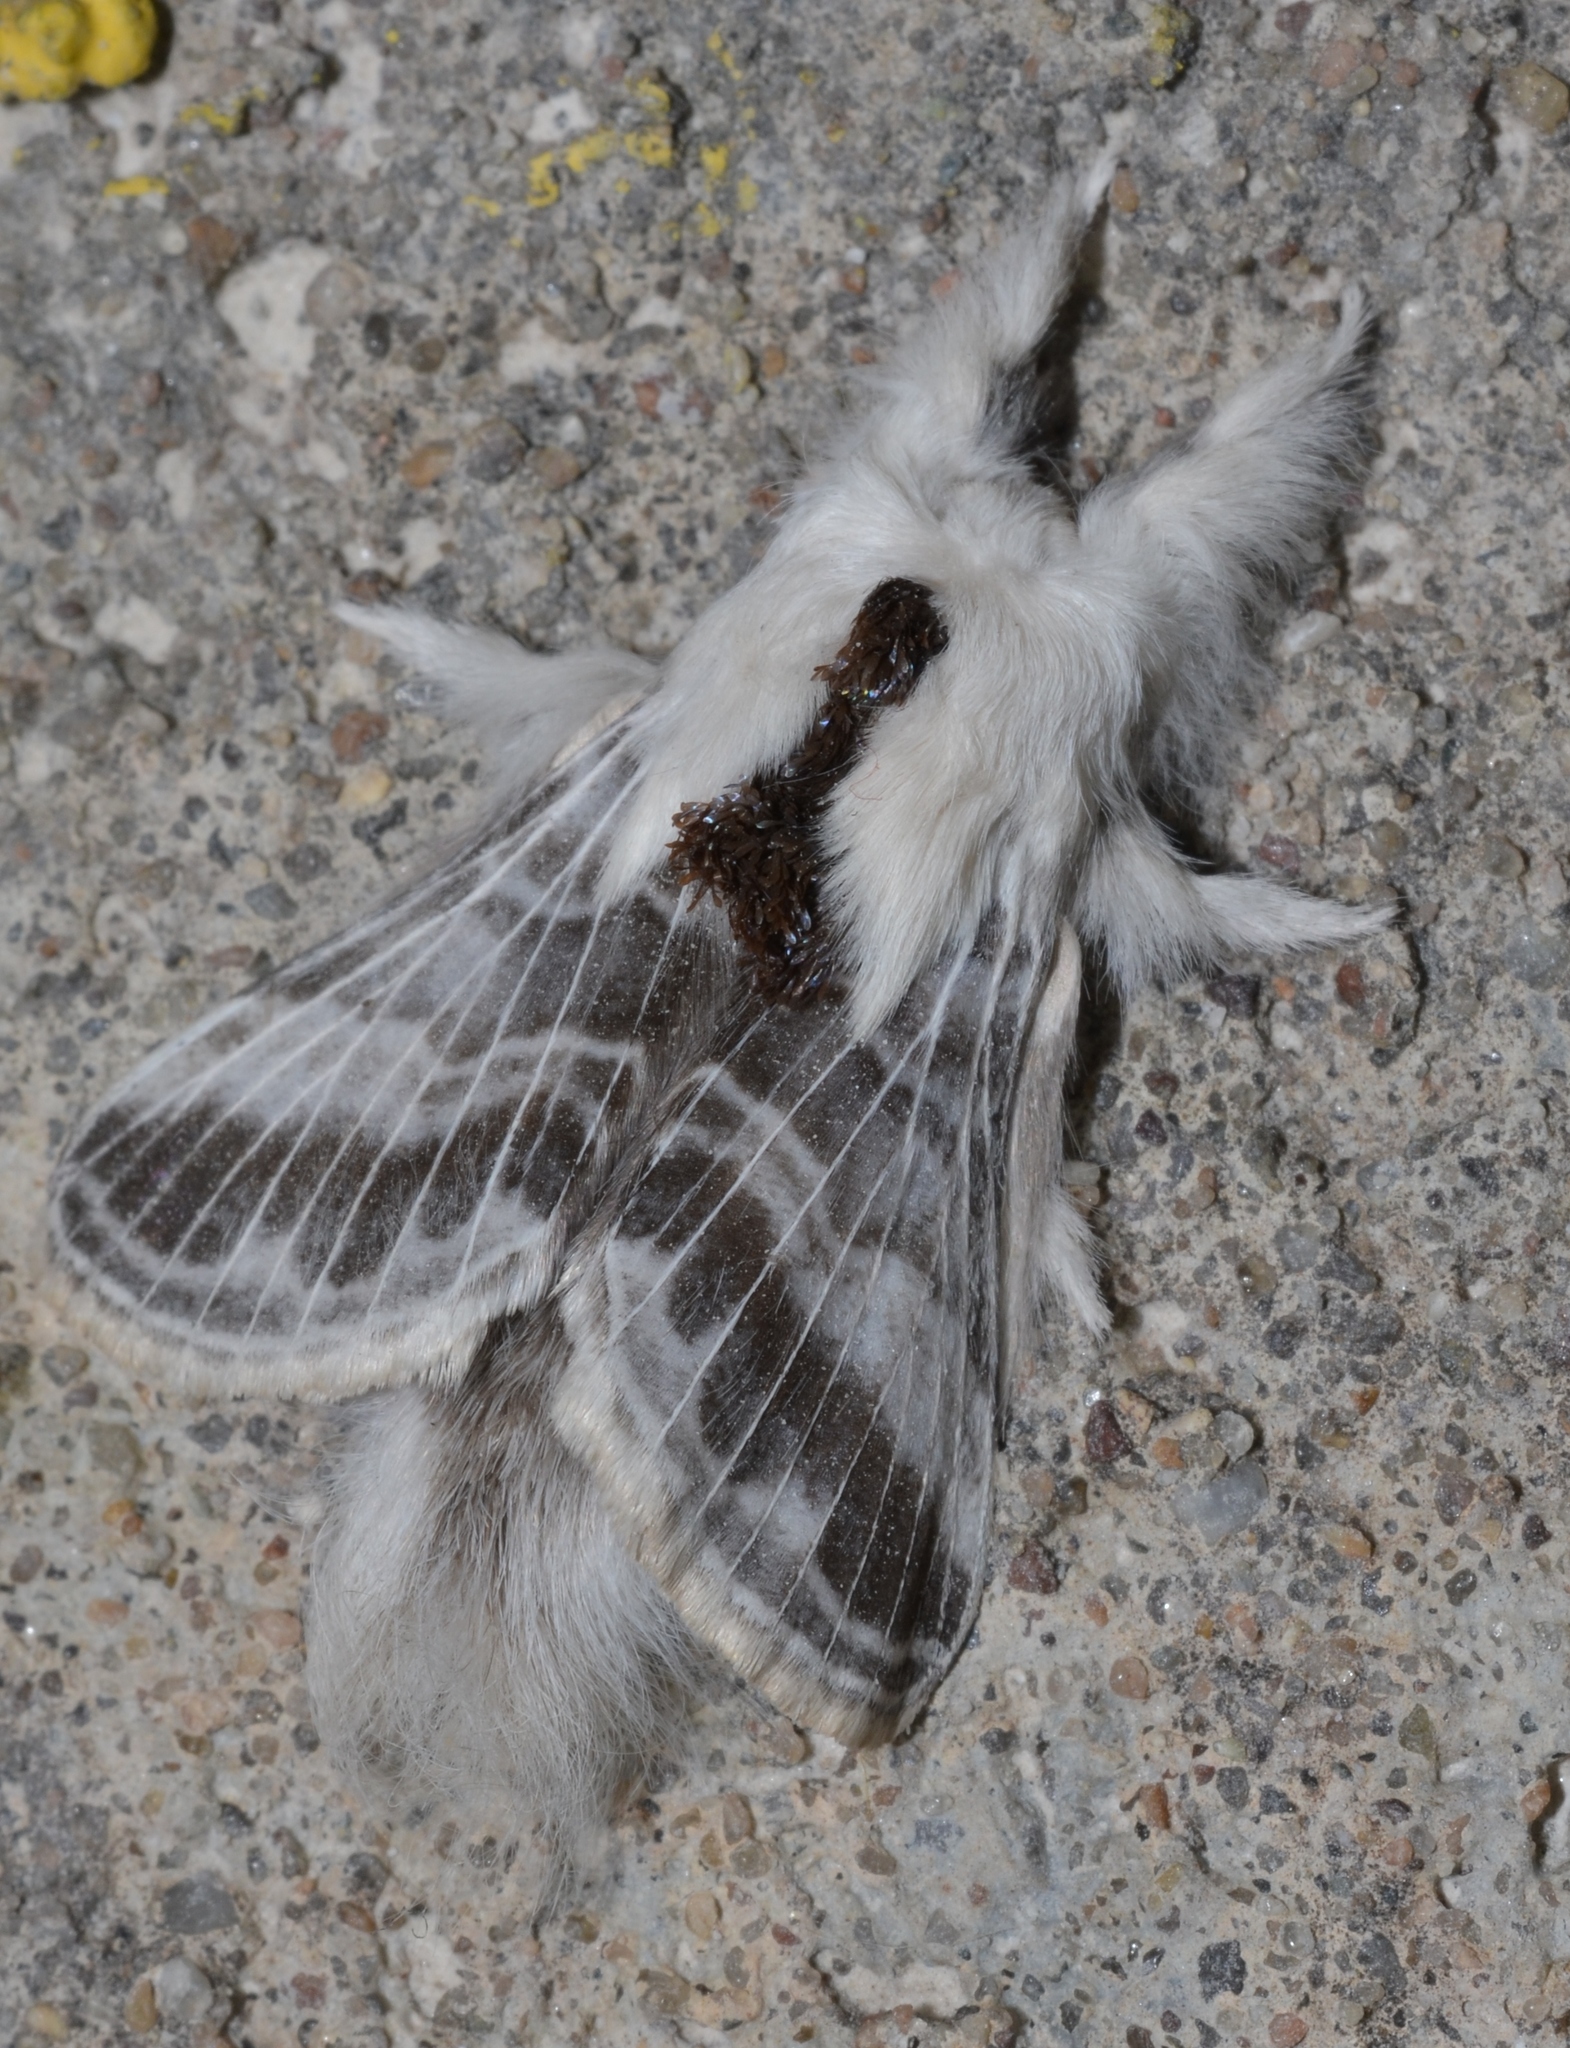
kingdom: Animalia
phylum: Arthropoda
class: Insecta
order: Lepidoptera
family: Lasiocampidae
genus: Tolype
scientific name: Tolype velleda
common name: Large tolype moth
